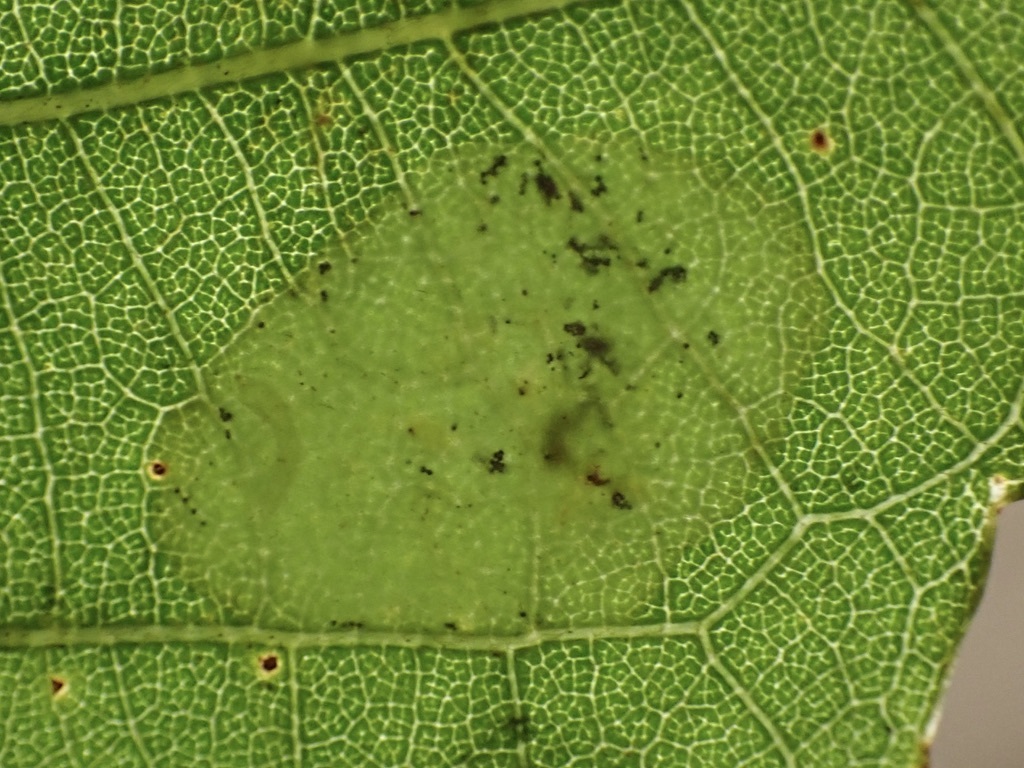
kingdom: Animalia
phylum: Arthropoda
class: Insecta
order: Lepidoptera
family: Gracillariidae
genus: Phyllonorycter
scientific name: Phyllonorycter fitchella
